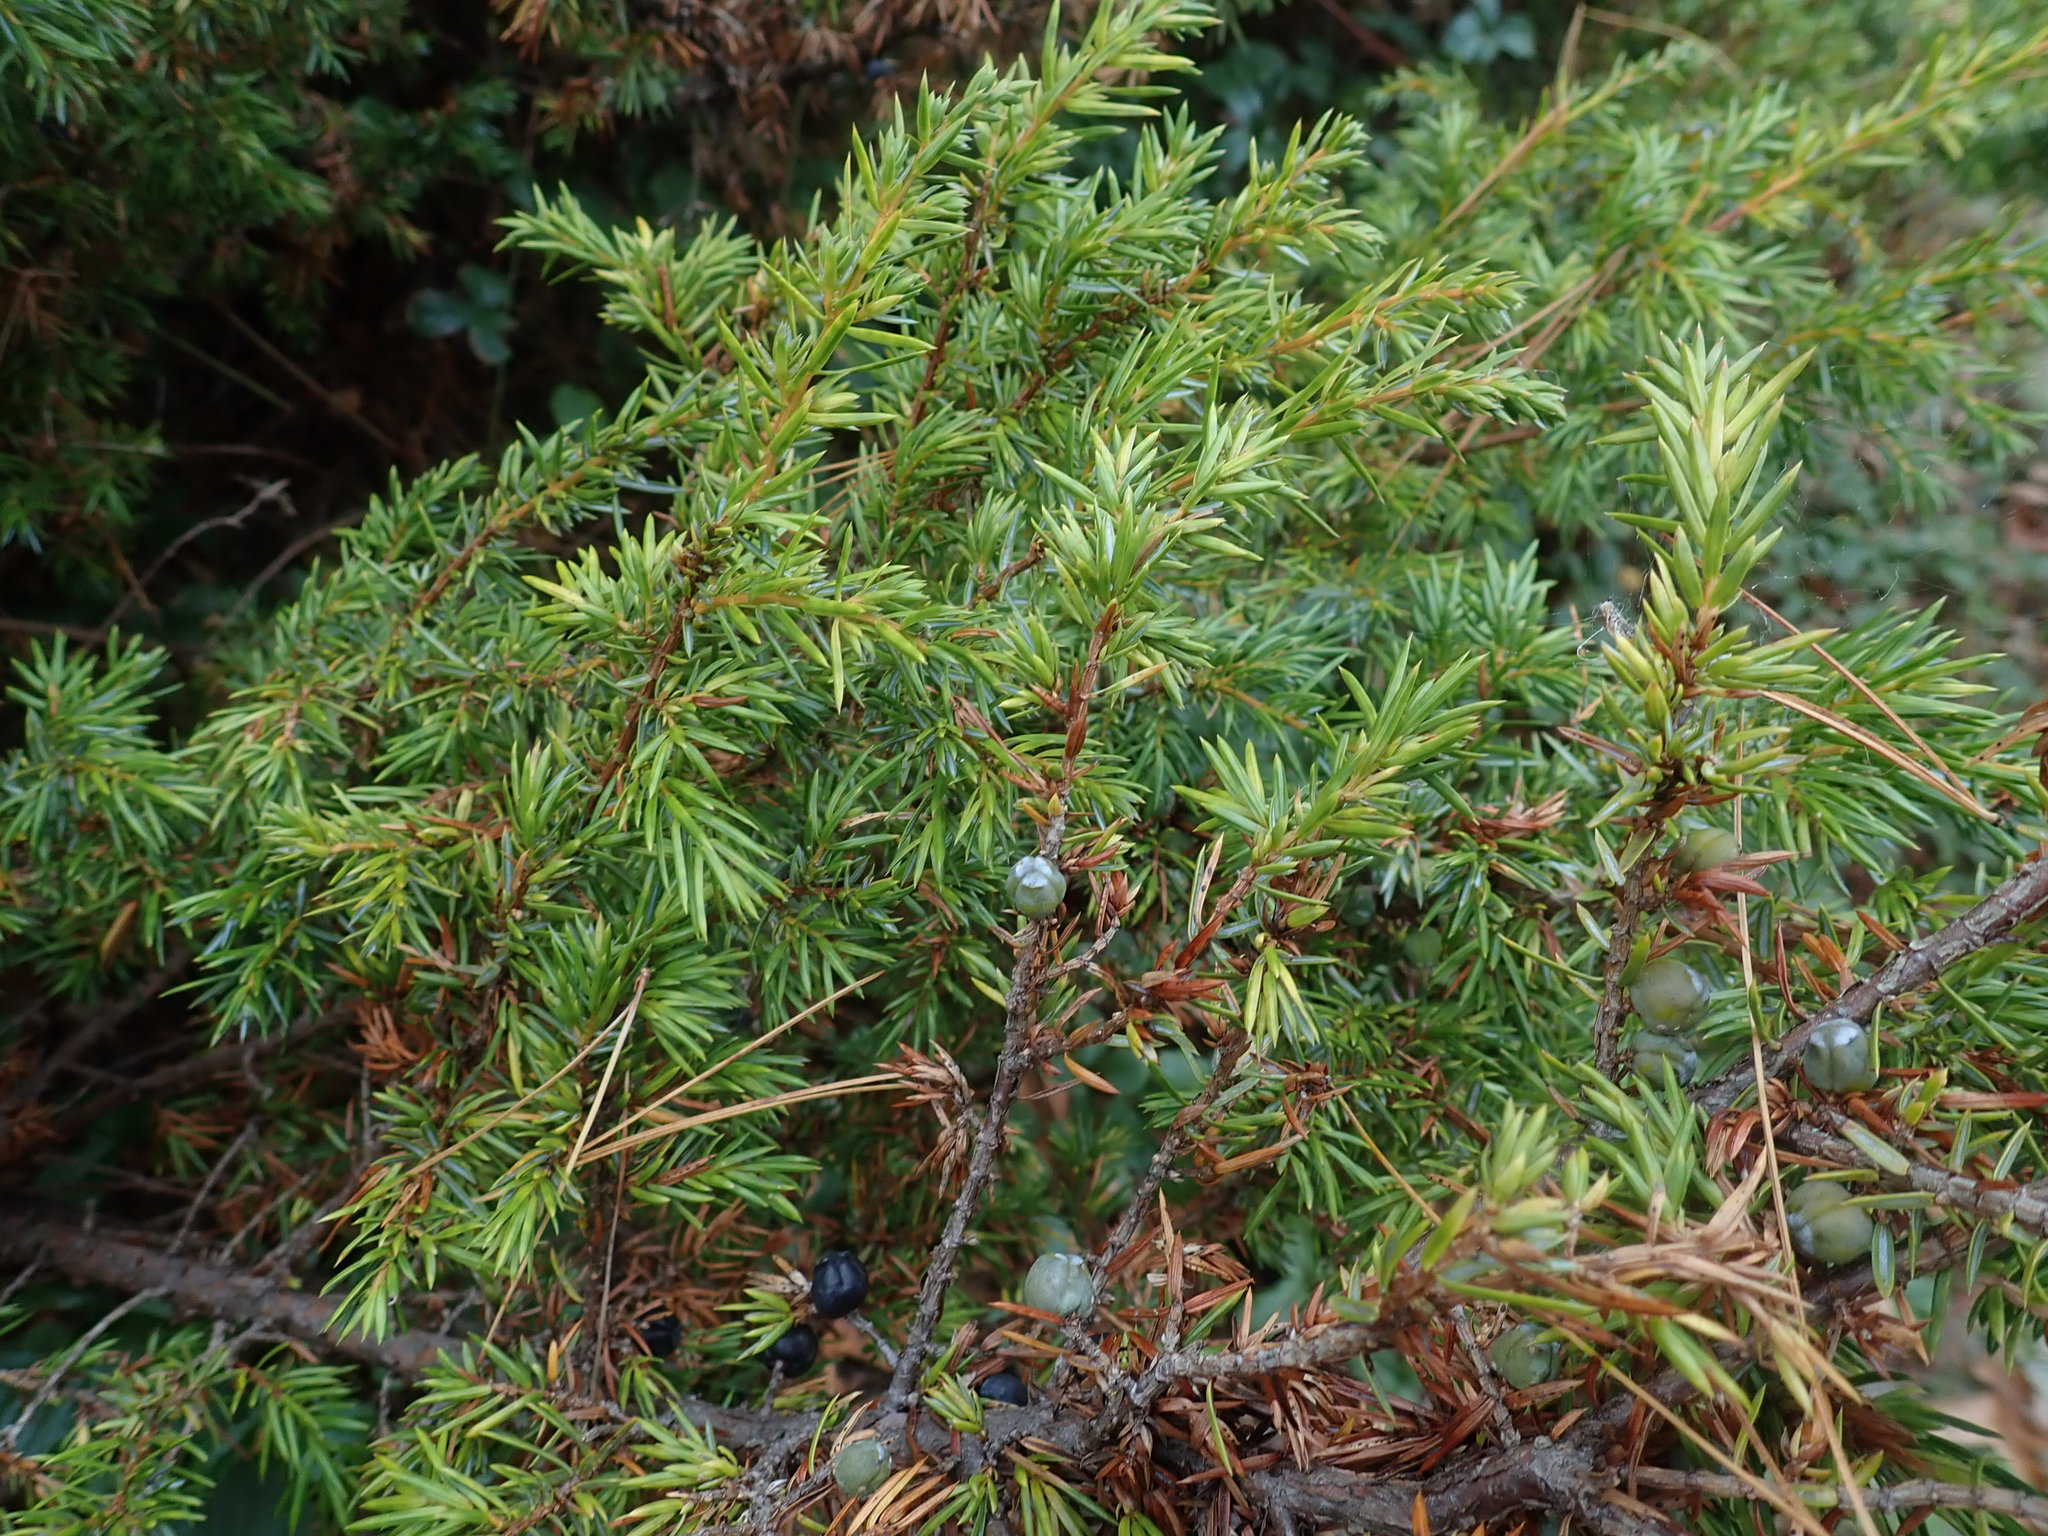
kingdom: Plantae
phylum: Tracheophyta
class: Pinopsida
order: Pinales
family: Cupressaceae
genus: Juniperus
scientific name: Juniperus communis
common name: Common juniper
